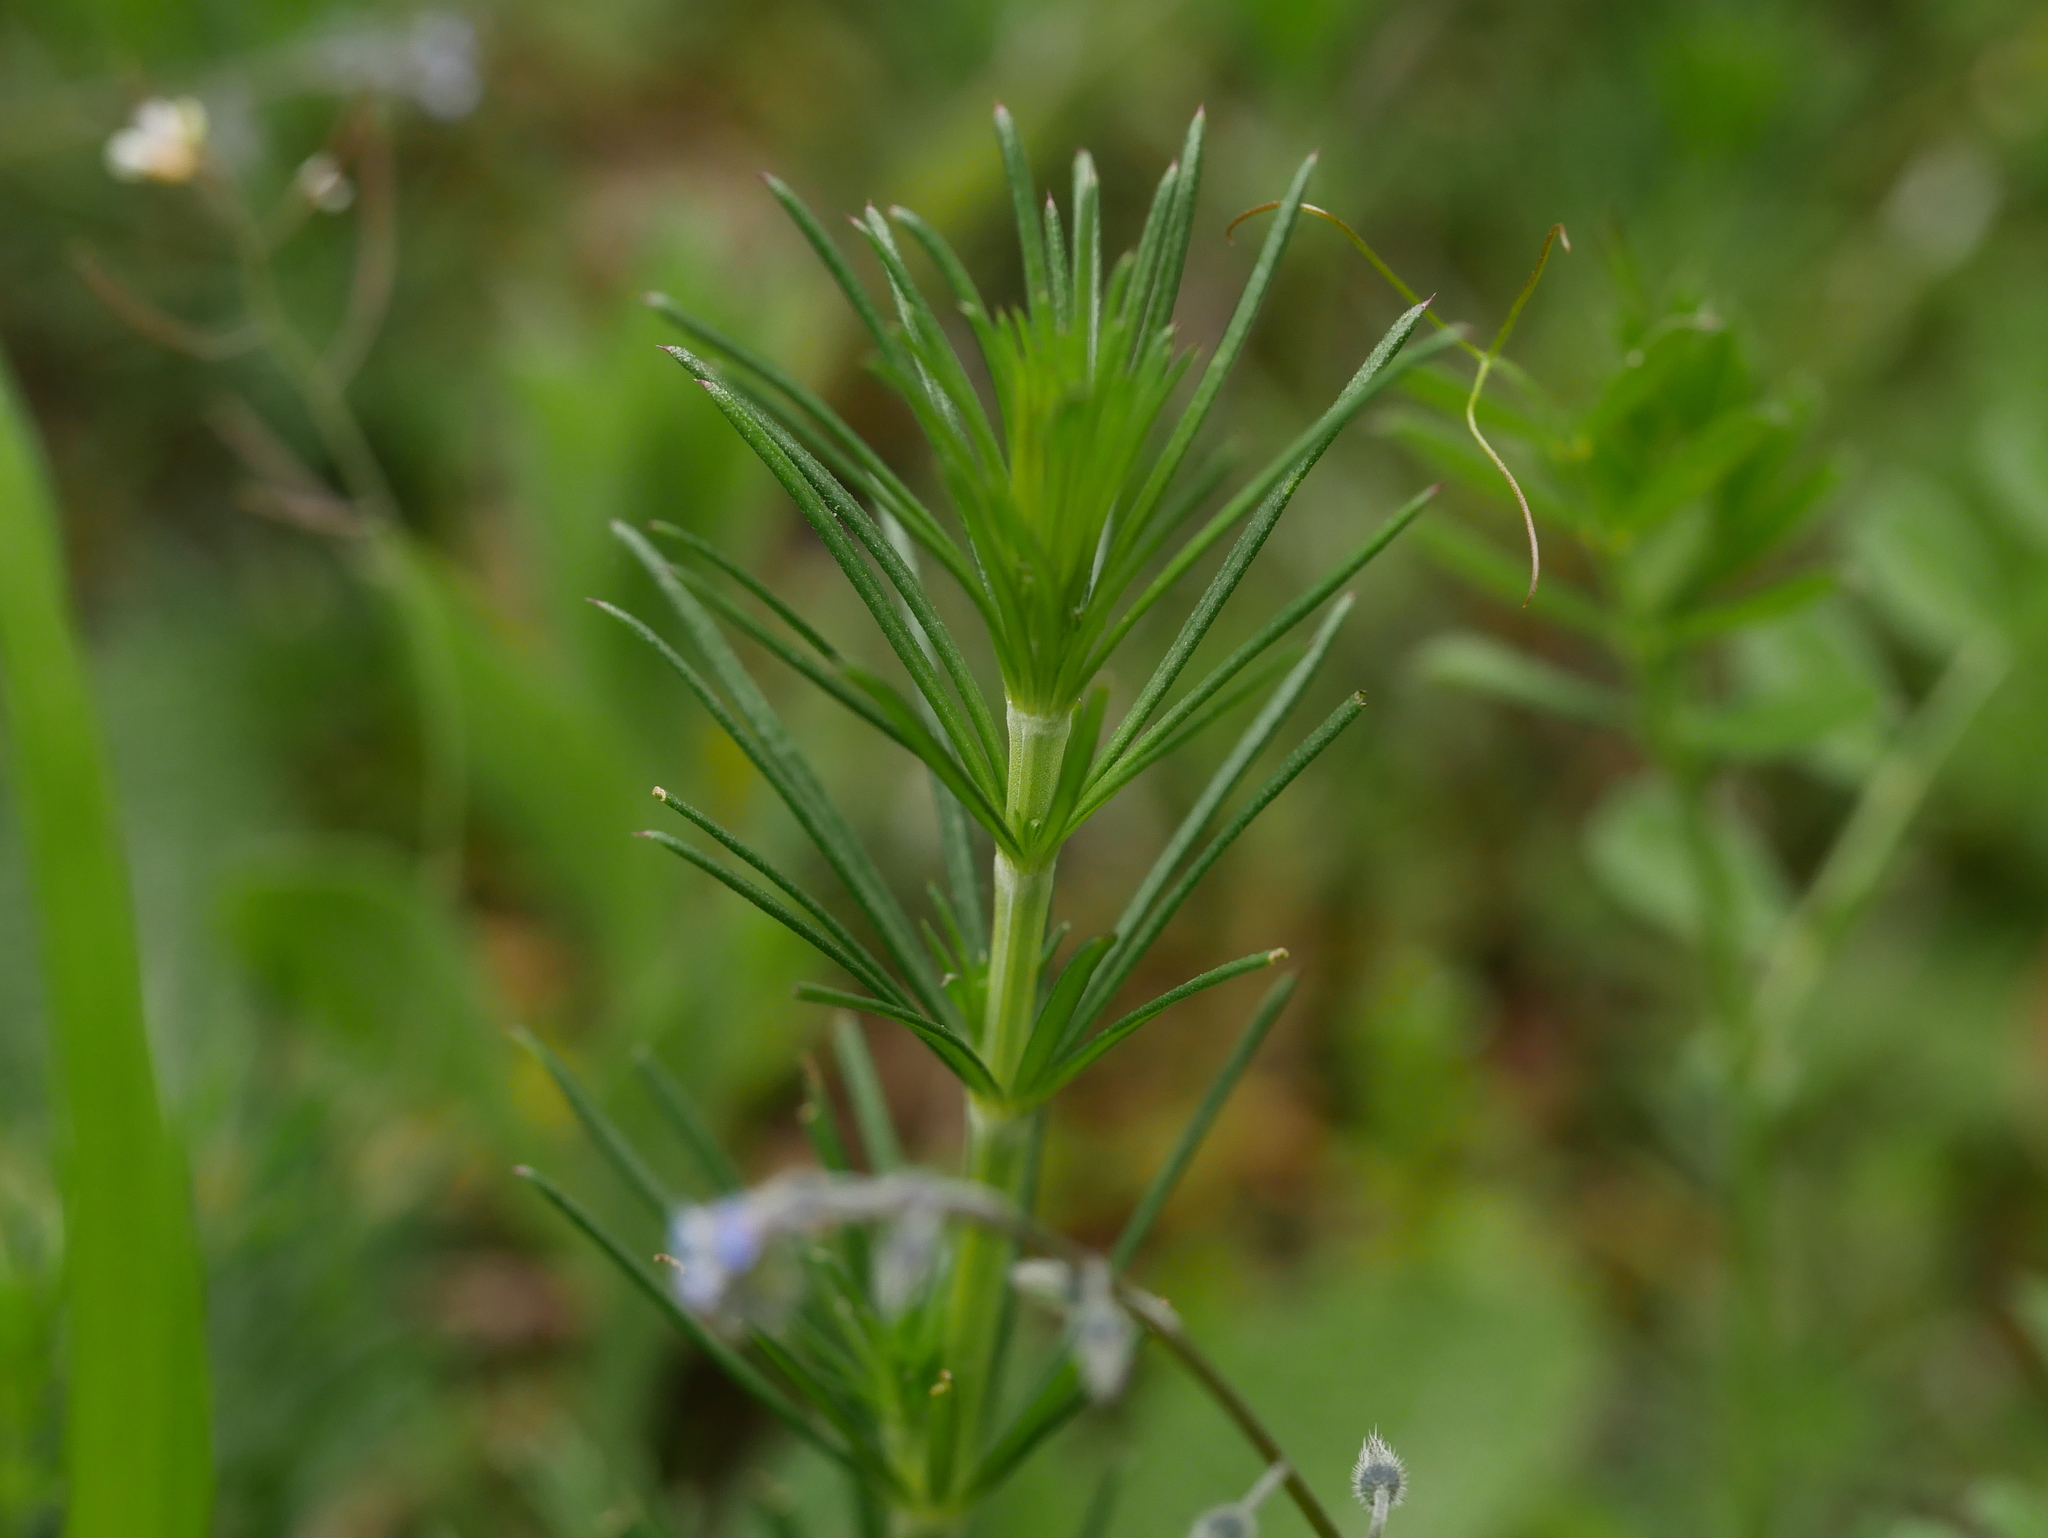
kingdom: Plantae
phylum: Tracheophyta
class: Magnoliopsida
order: Gentianales
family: Rubiaceae
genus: Galium
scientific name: Galium verum
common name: Lady's bedstraw
